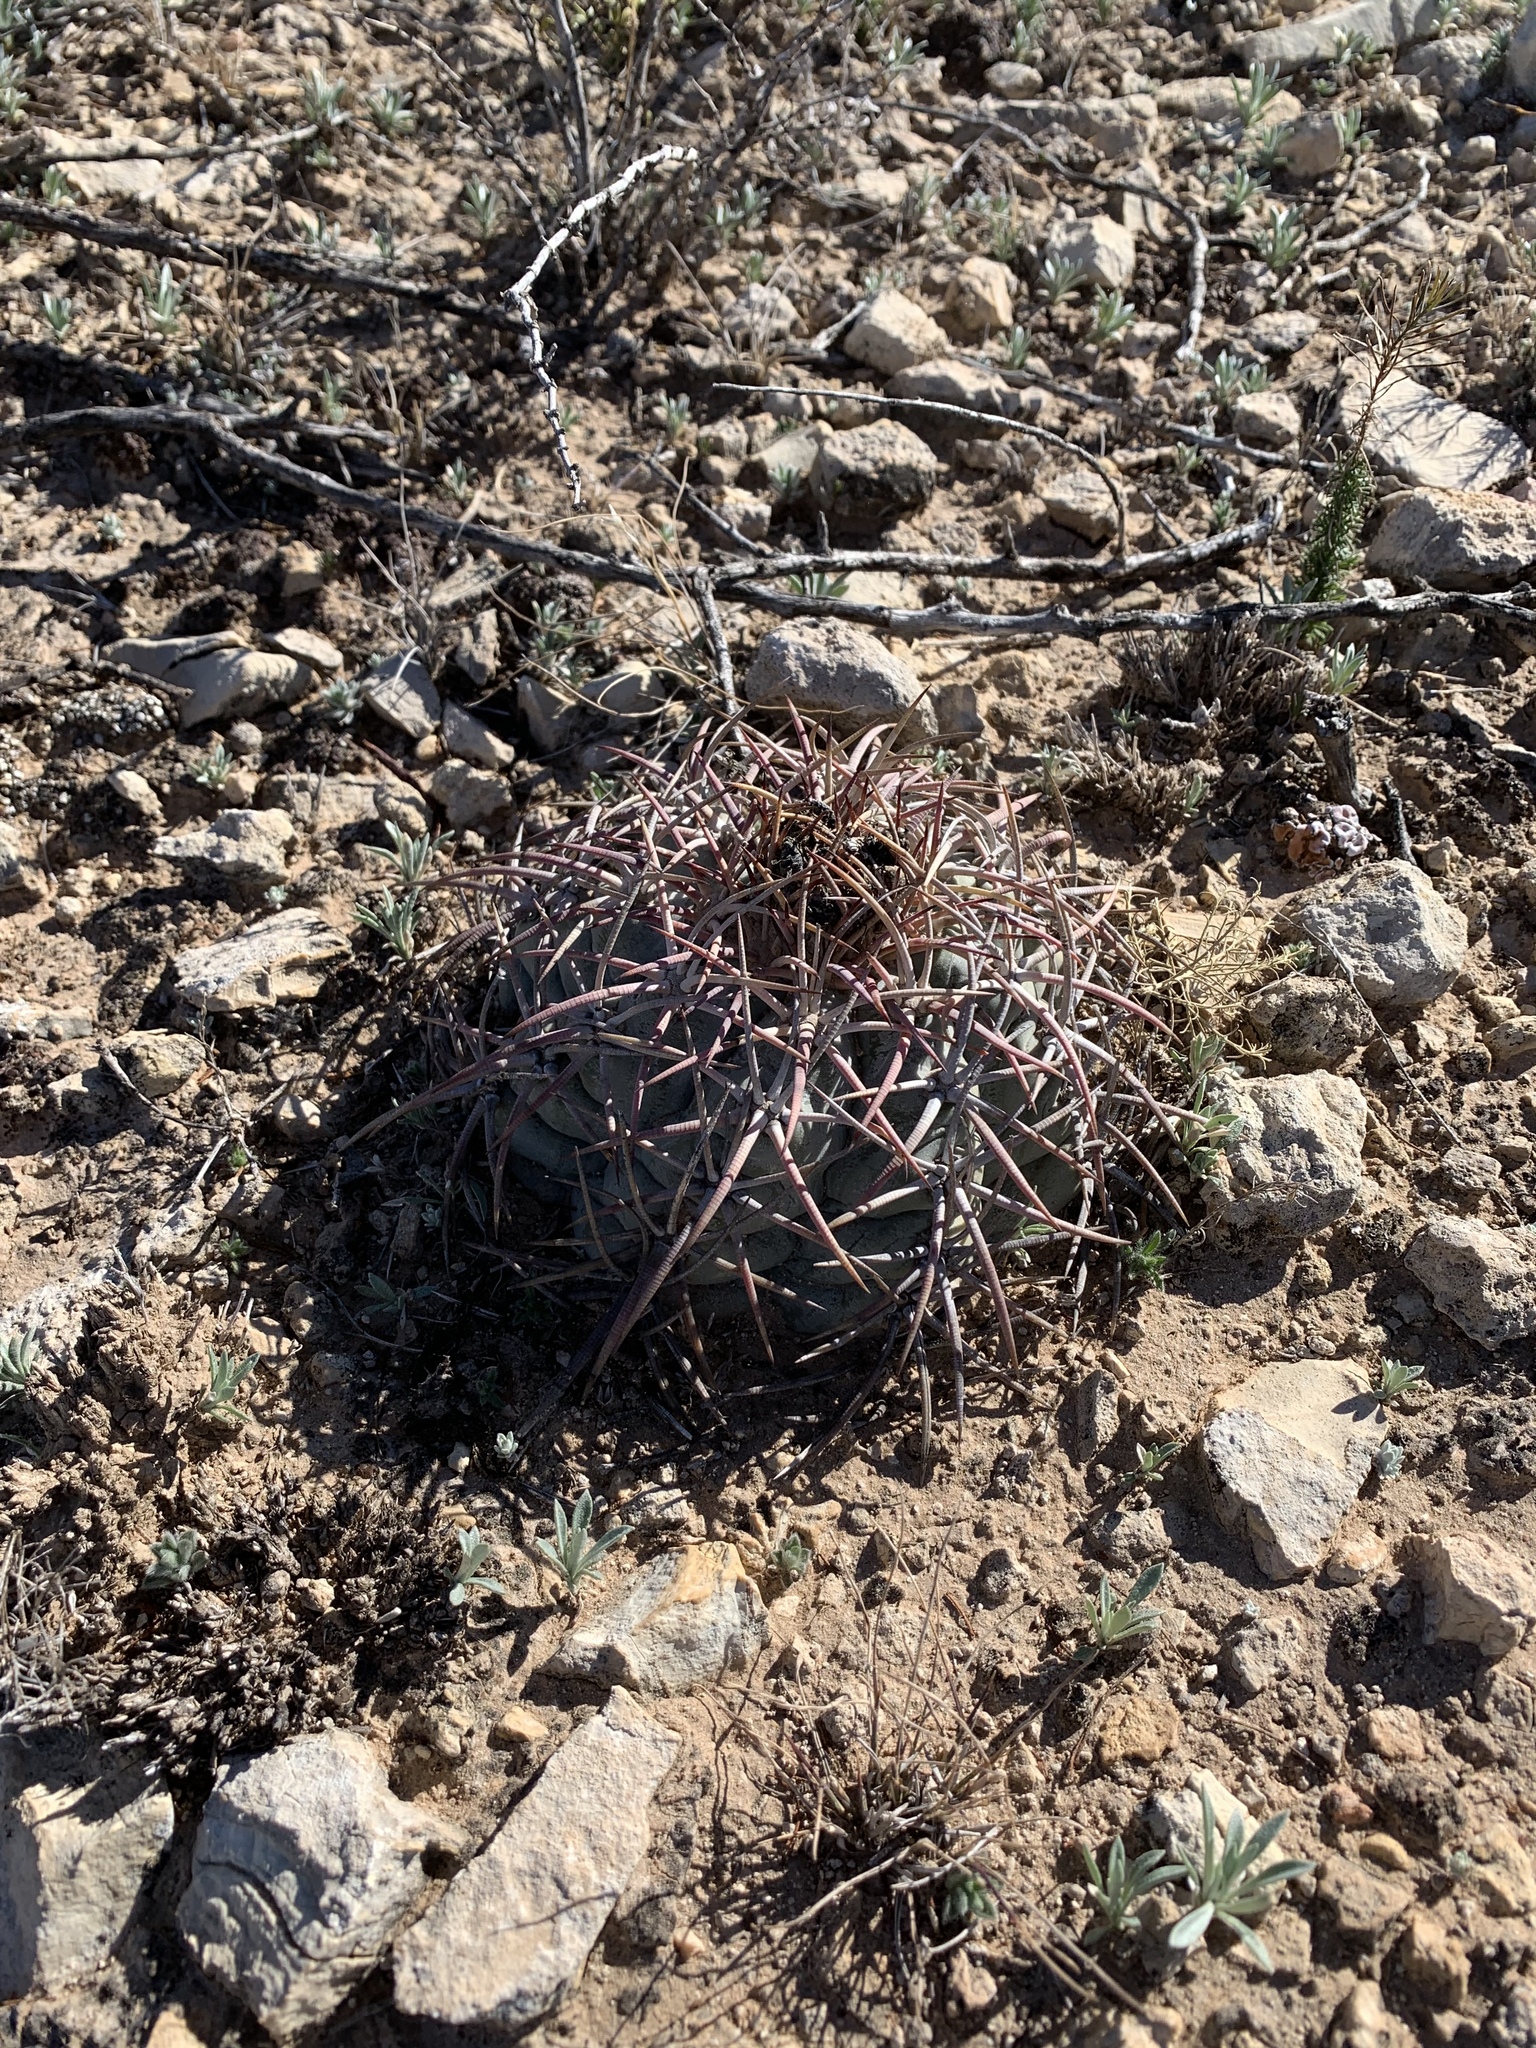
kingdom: Plantae
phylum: Tracheophyta
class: Magnoliopsida
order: Caryophyllales
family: Cactaceae
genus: Echinocactus
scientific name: Echinocactus horizonthalonius
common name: Devilshead
